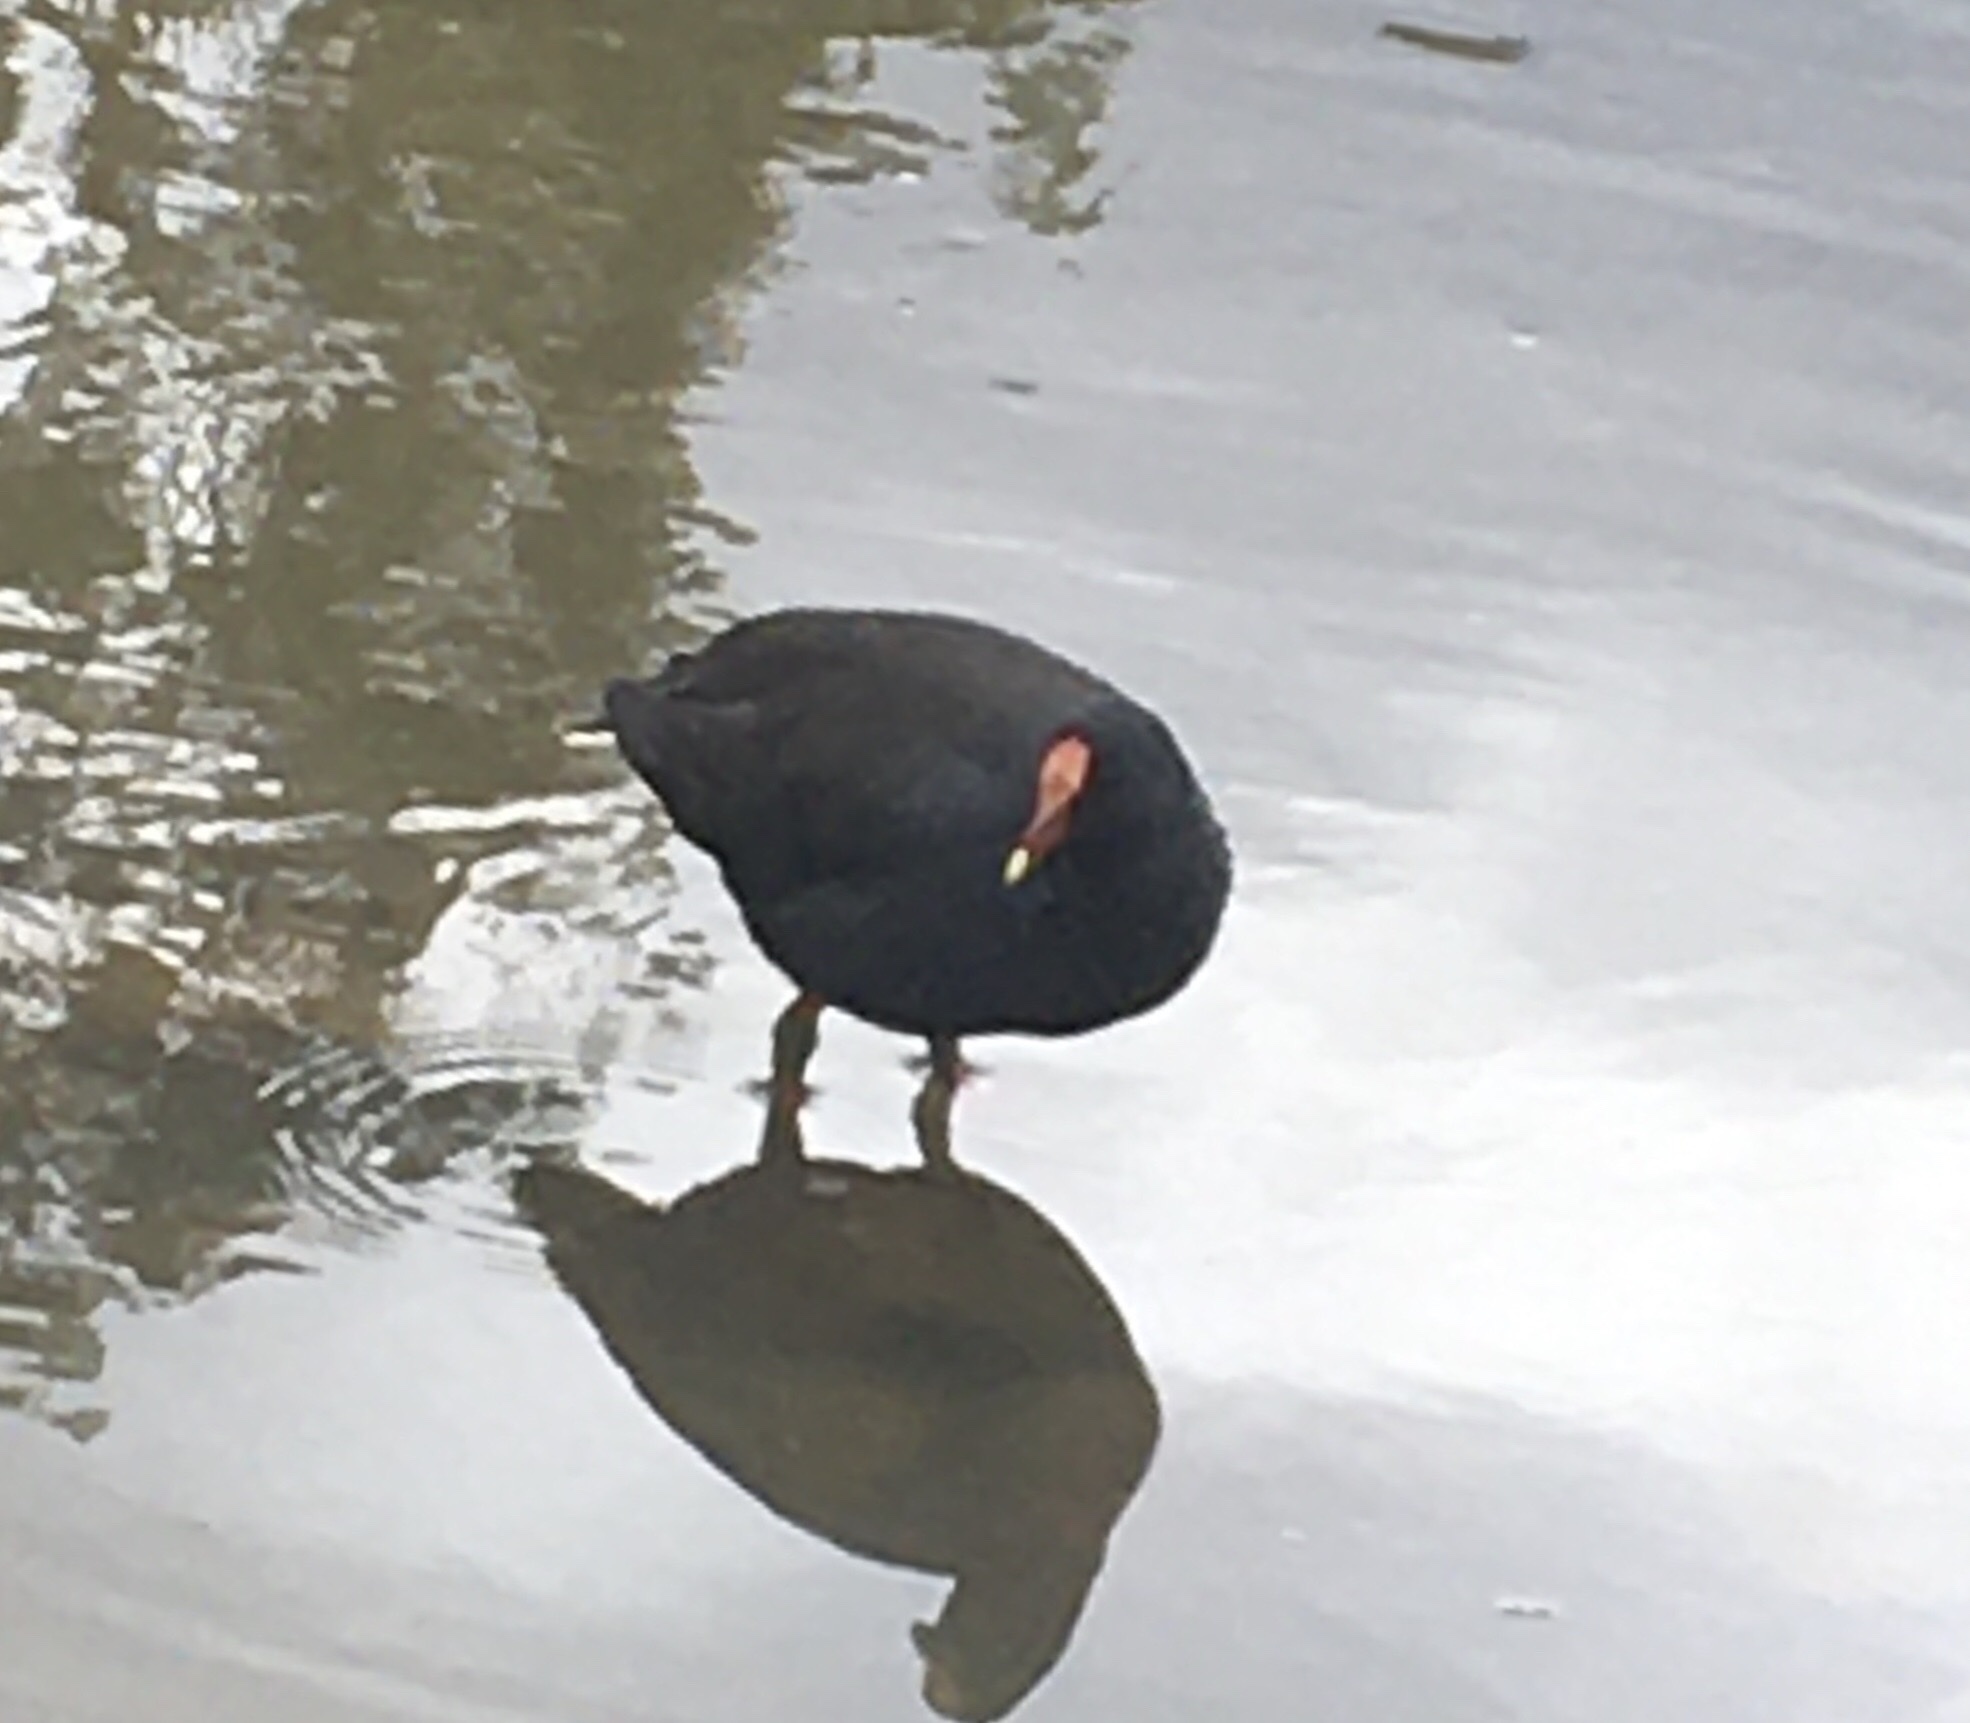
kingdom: Animalia
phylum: Chordata
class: Aves
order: Gruiformes
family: Rallidae
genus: Gallinula
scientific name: Gallinula tenebrosa
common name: Dusky moorhen
